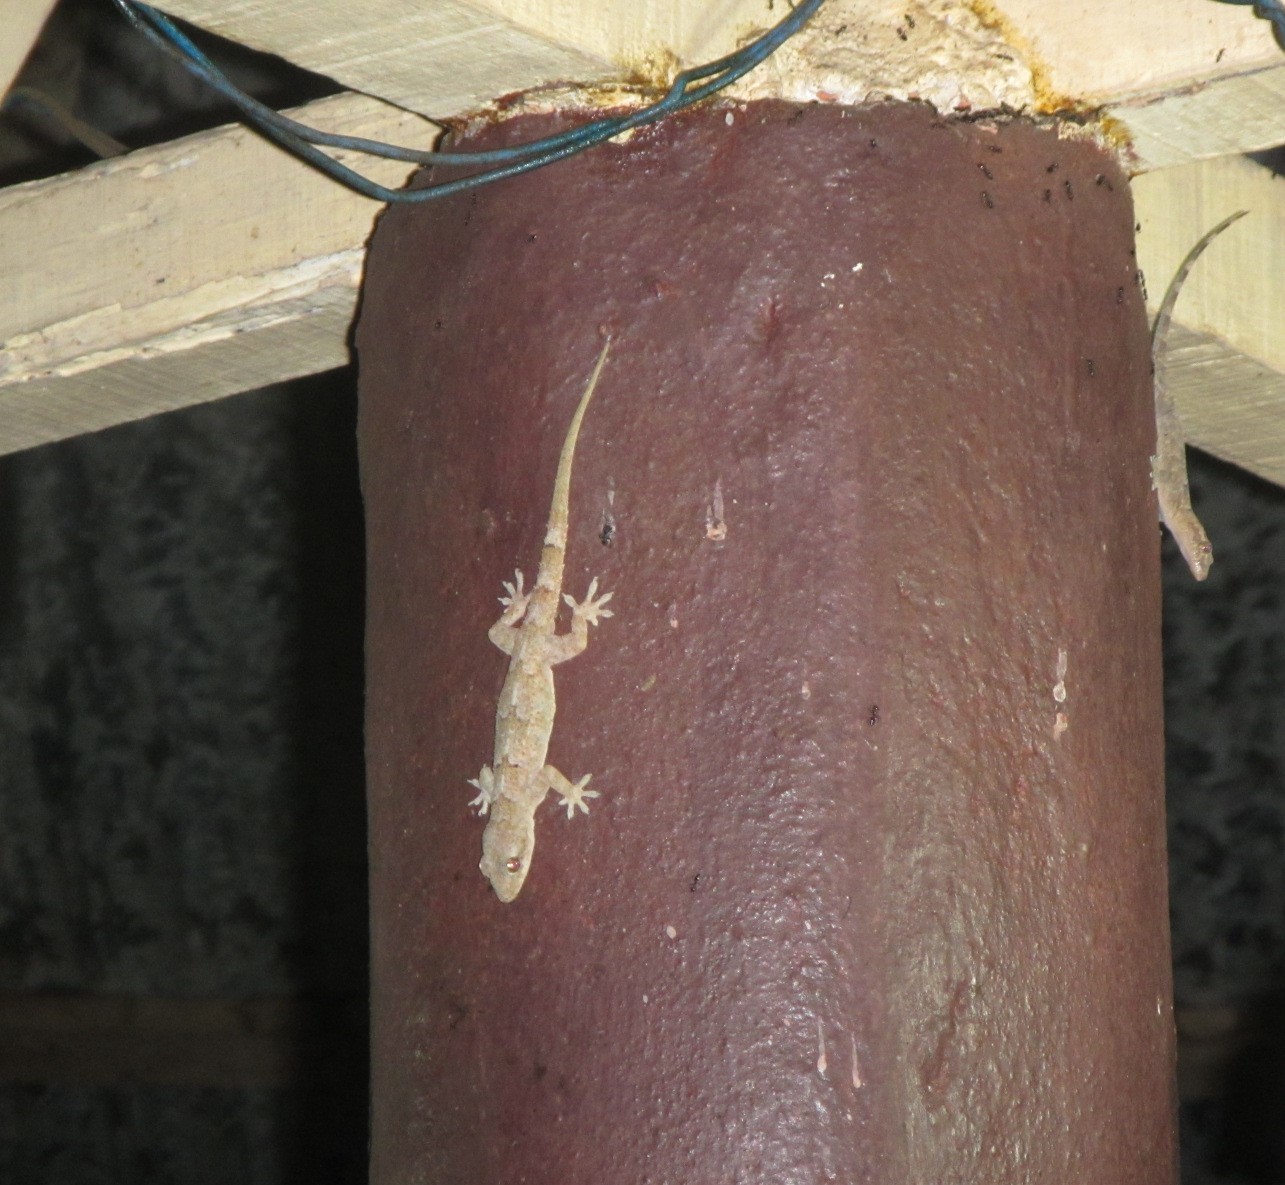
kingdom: Animalia
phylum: Chordata
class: Squamata
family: Gekkonidae
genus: Hemidactylus
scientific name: Hemidactylus mabouia
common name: House gecko
